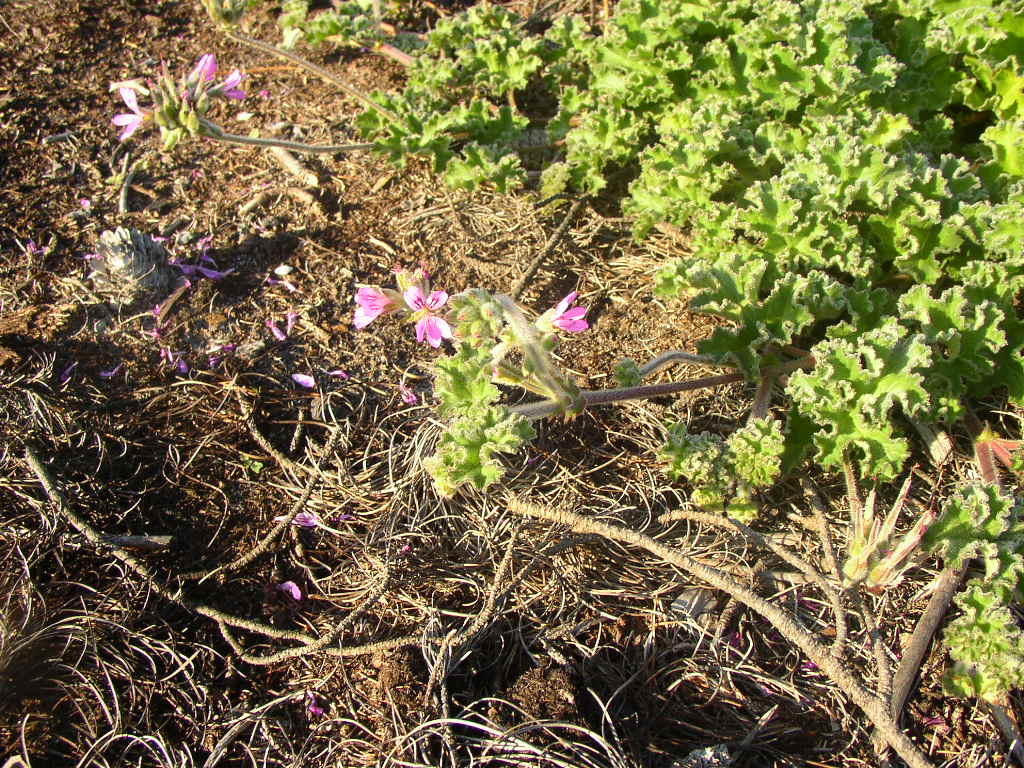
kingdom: Plantae
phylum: Tracheophyta
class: Magnoliopsida
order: Geraniales
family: Geraniaceae
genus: Pelargonium
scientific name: Pelargonium capitatum
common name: Rose scented geranium
